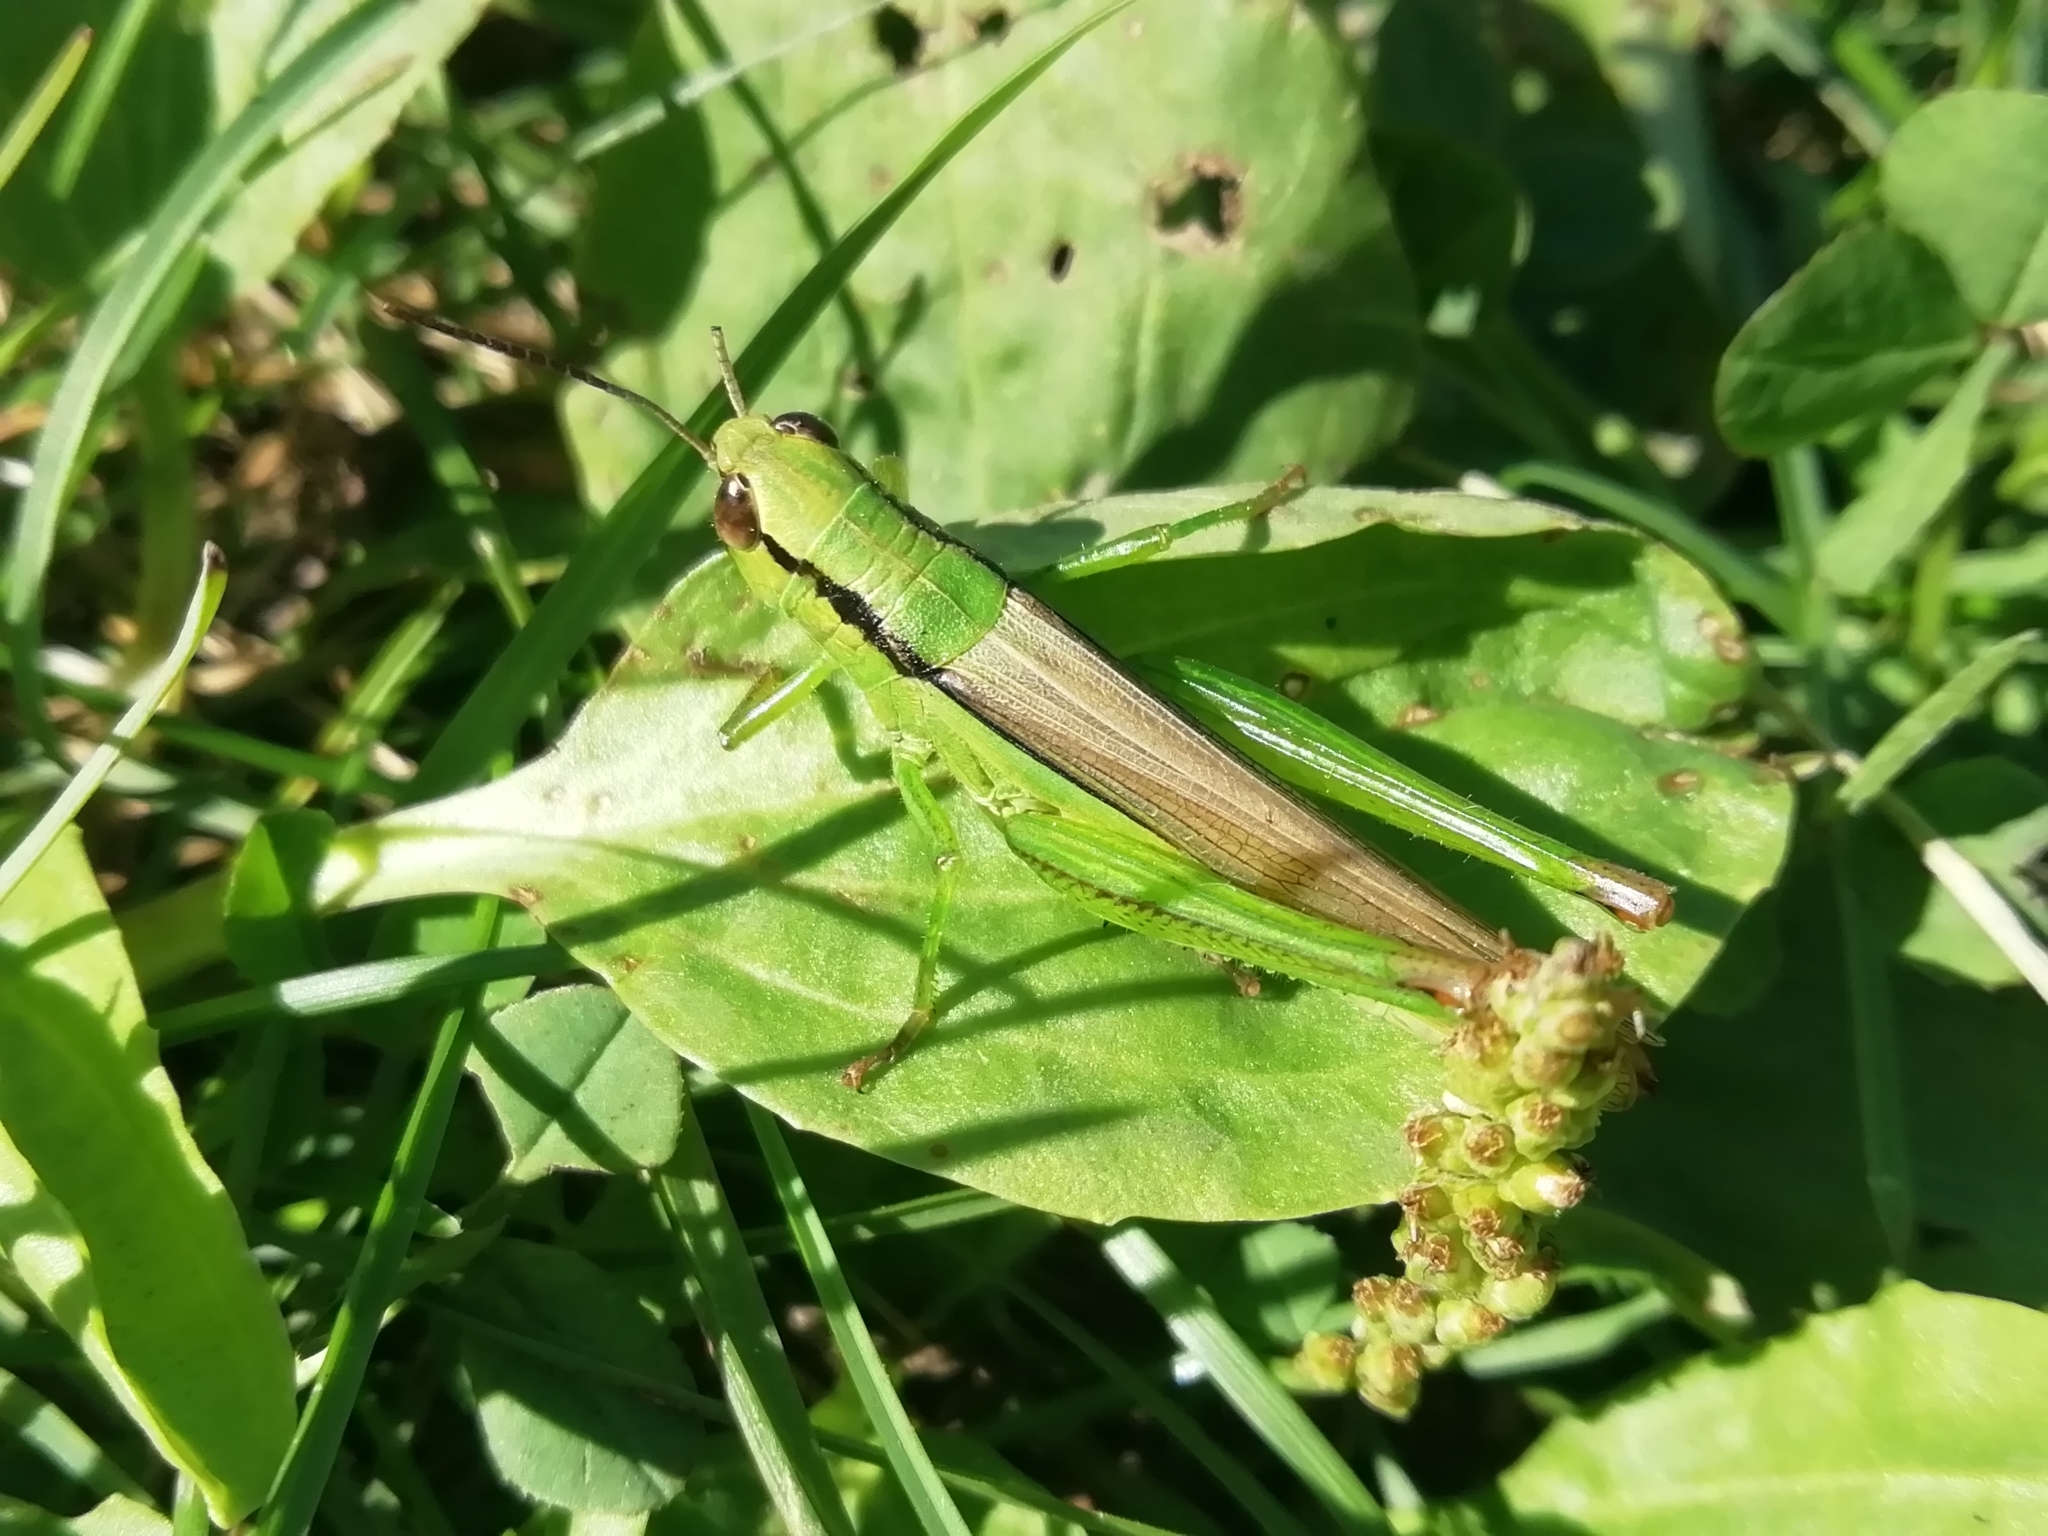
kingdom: Animalia
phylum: Arthropoda
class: Insecta
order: Orthoptera
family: Acrididae
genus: Mecostethus
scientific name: Mecostethus parapleurus
